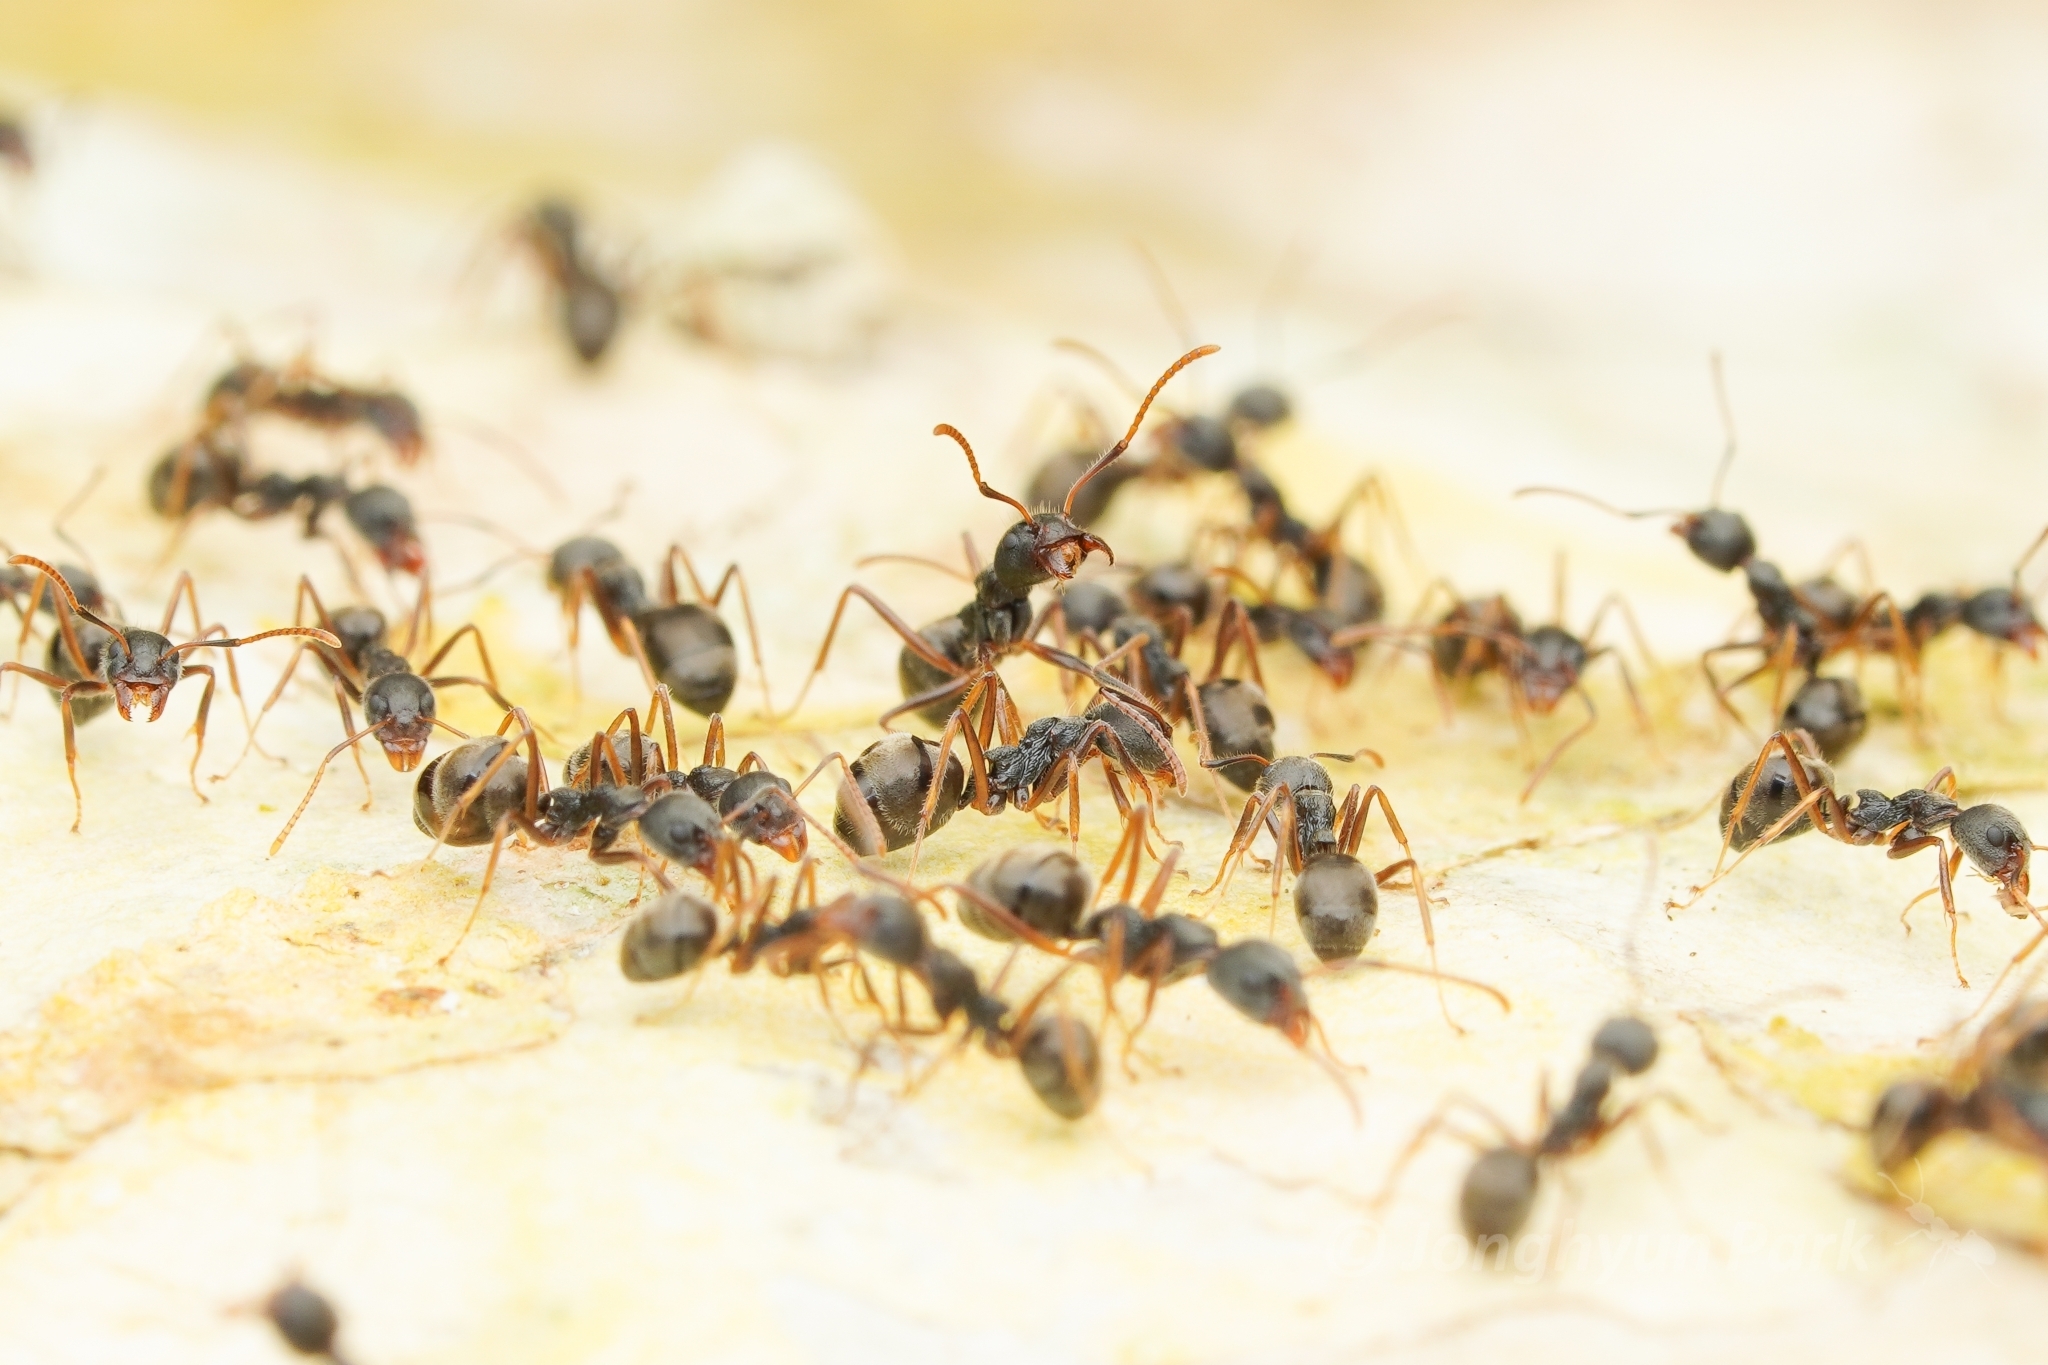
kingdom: Animalia
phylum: Arthropoda
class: Insecta
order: Hymenoptera
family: Formicidae
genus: Dolichoderus
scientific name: Dolichoderus affinis
